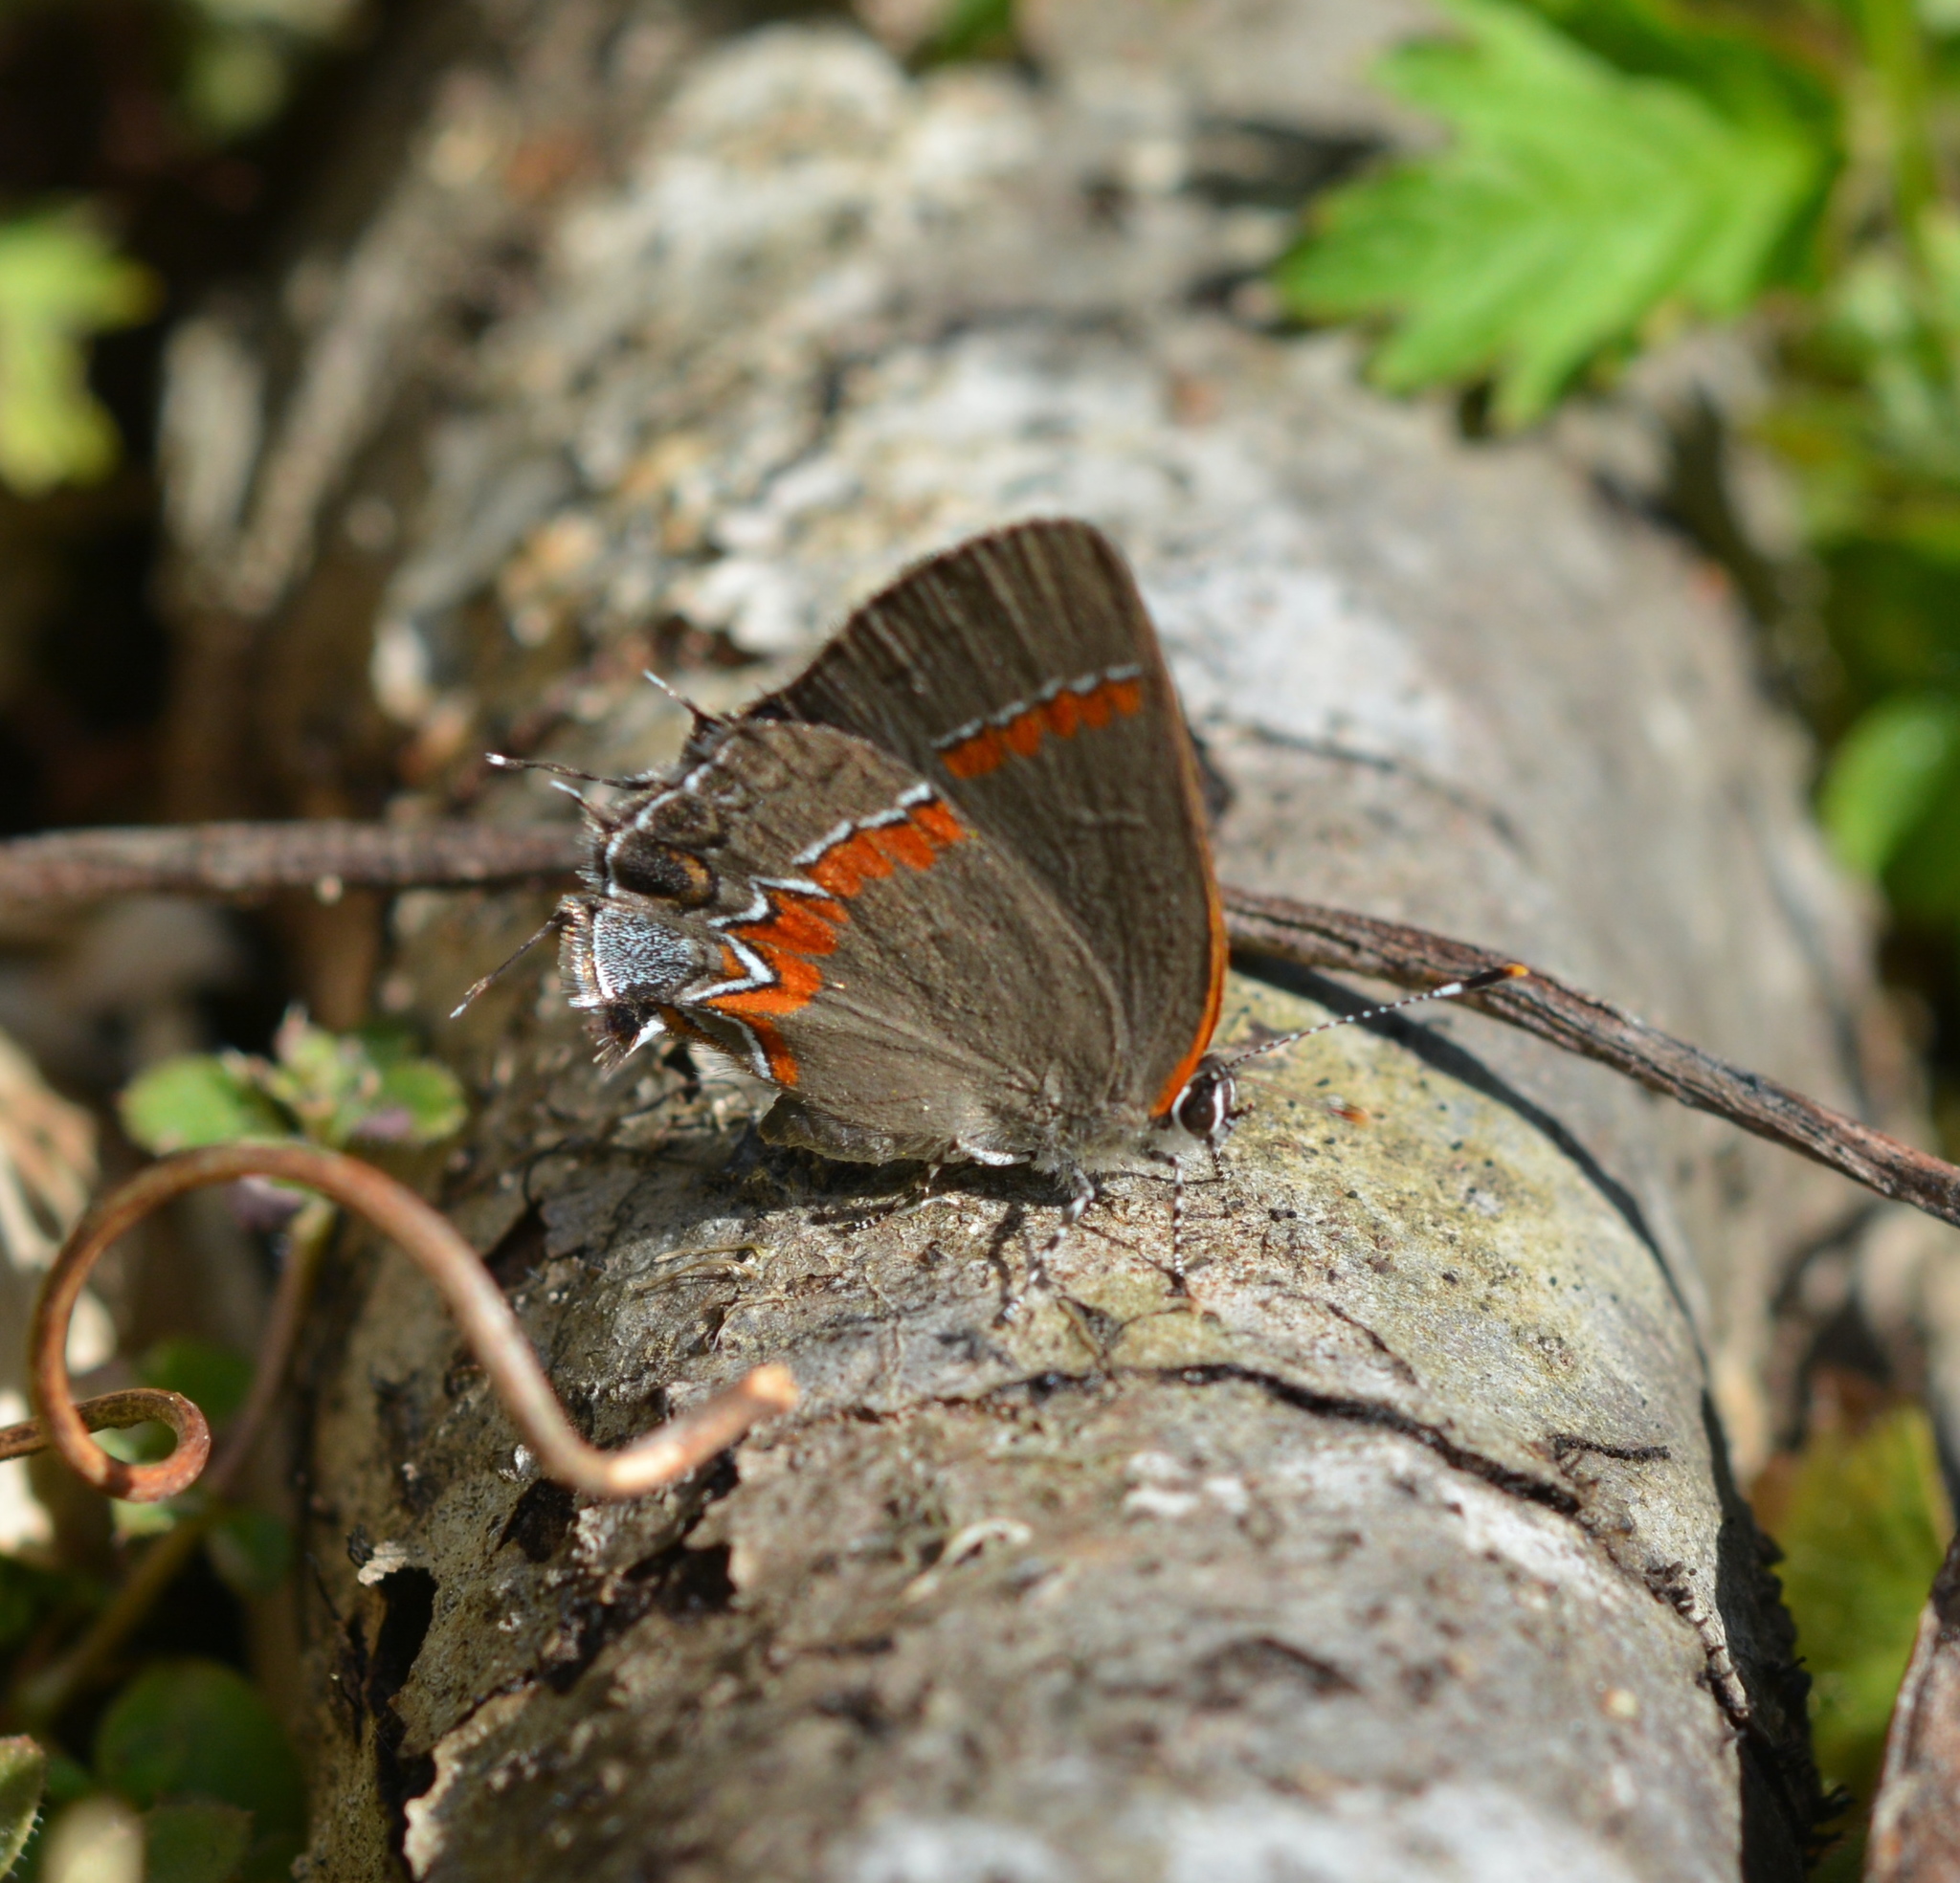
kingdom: Animalia
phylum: Arthropoda
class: Insecta
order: Lepidoptera
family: Lycaenidae
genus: Calycopis
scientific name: Calycopis cecrops
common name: Red-banded hairstreak
